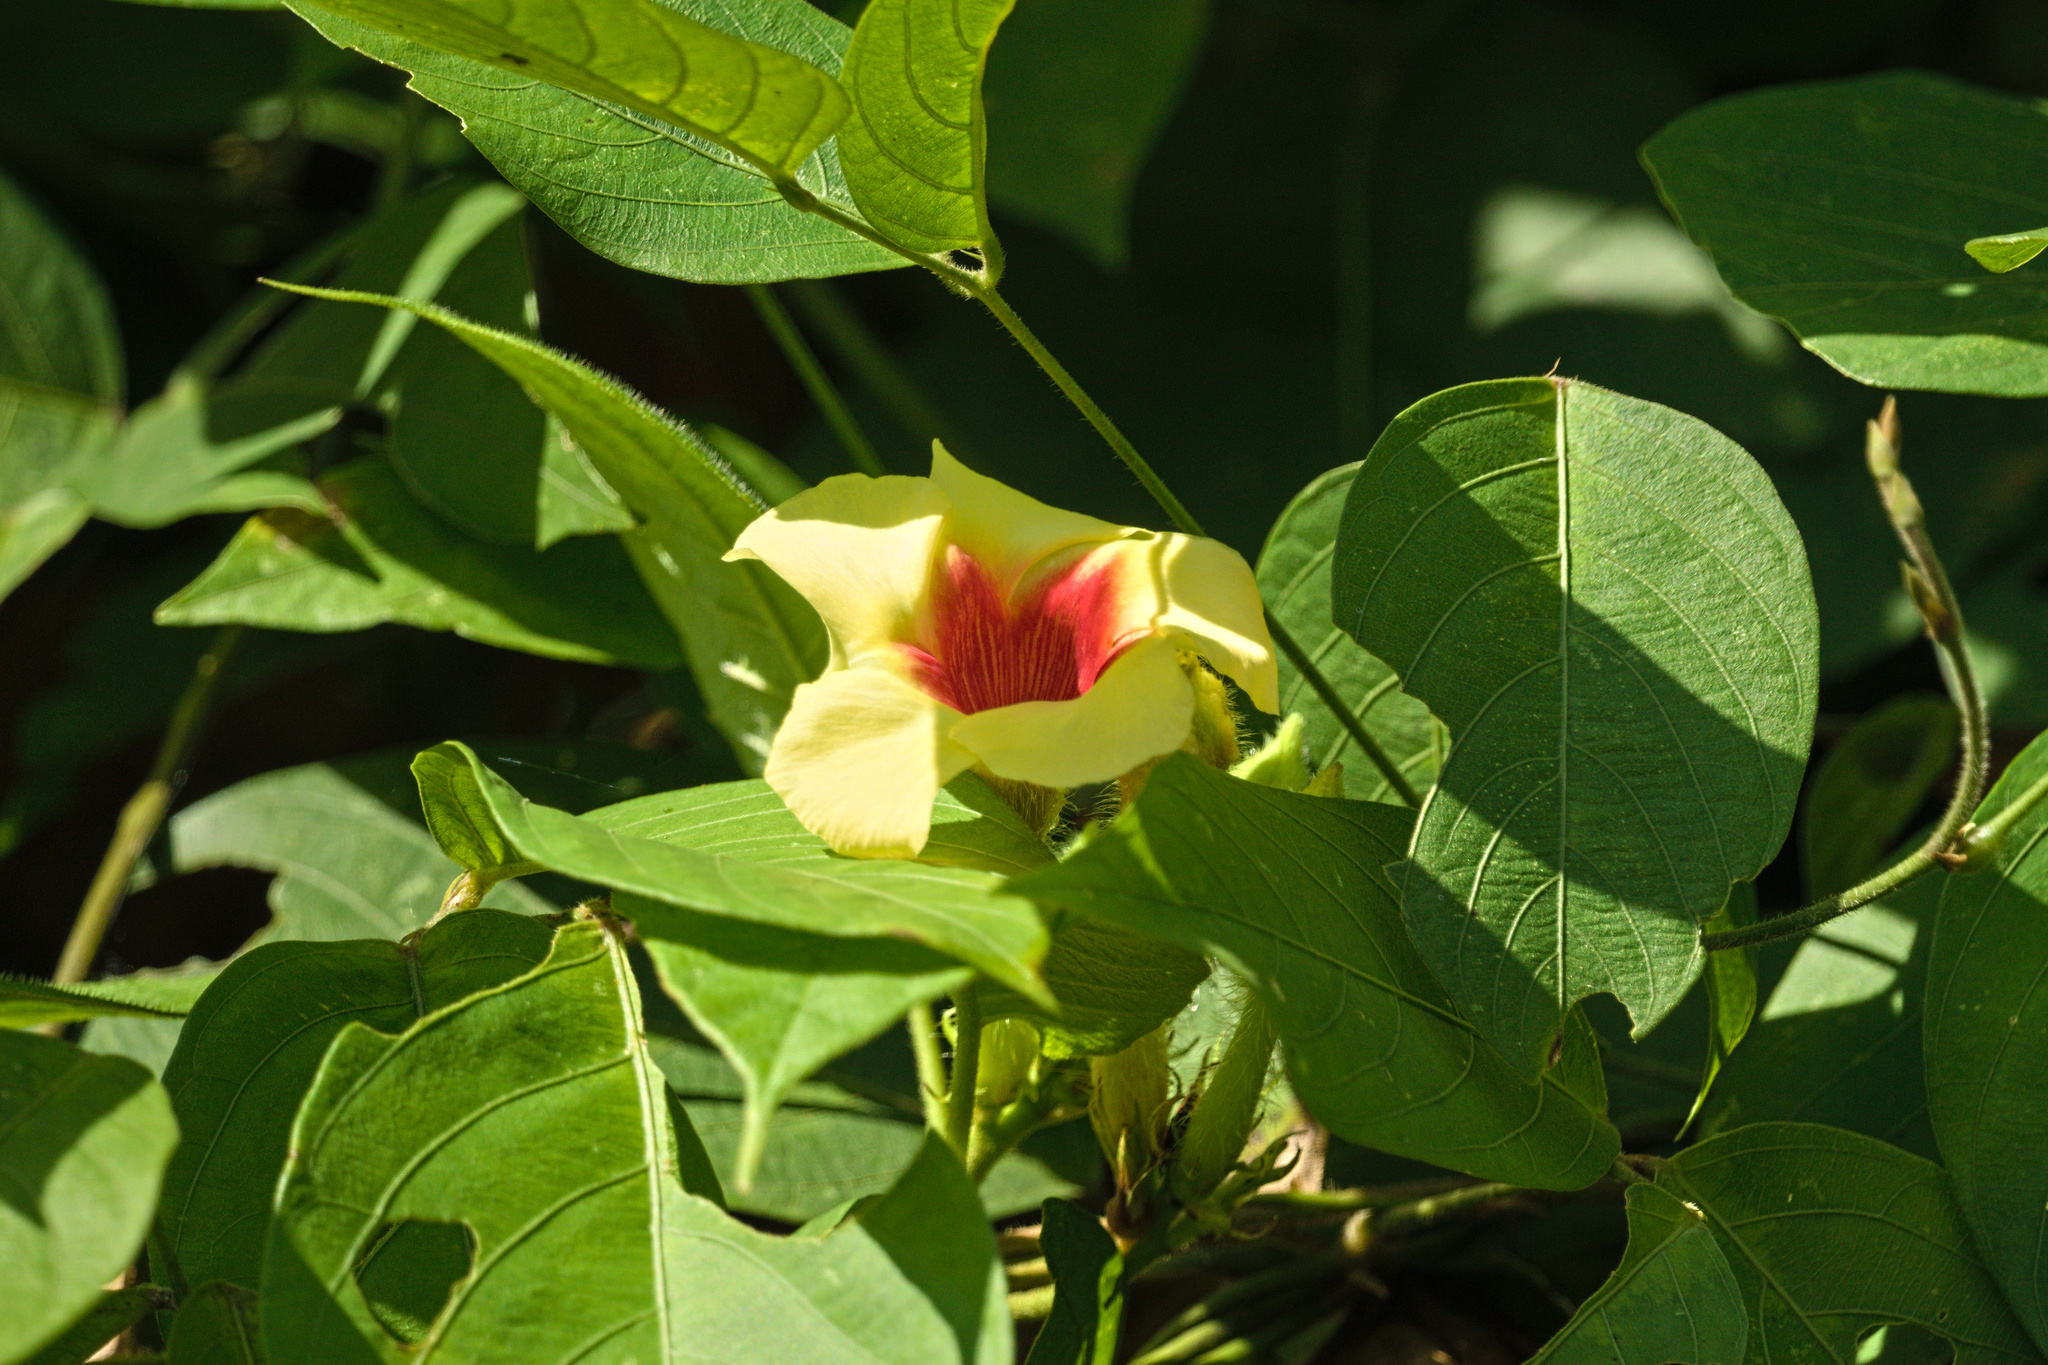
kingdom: Plantae
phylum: Tracheophyta
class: Magnoliopsida
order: Gentianales
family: Apocynaceae
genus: Mandevilla
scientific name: Mandevilla hirsuta
